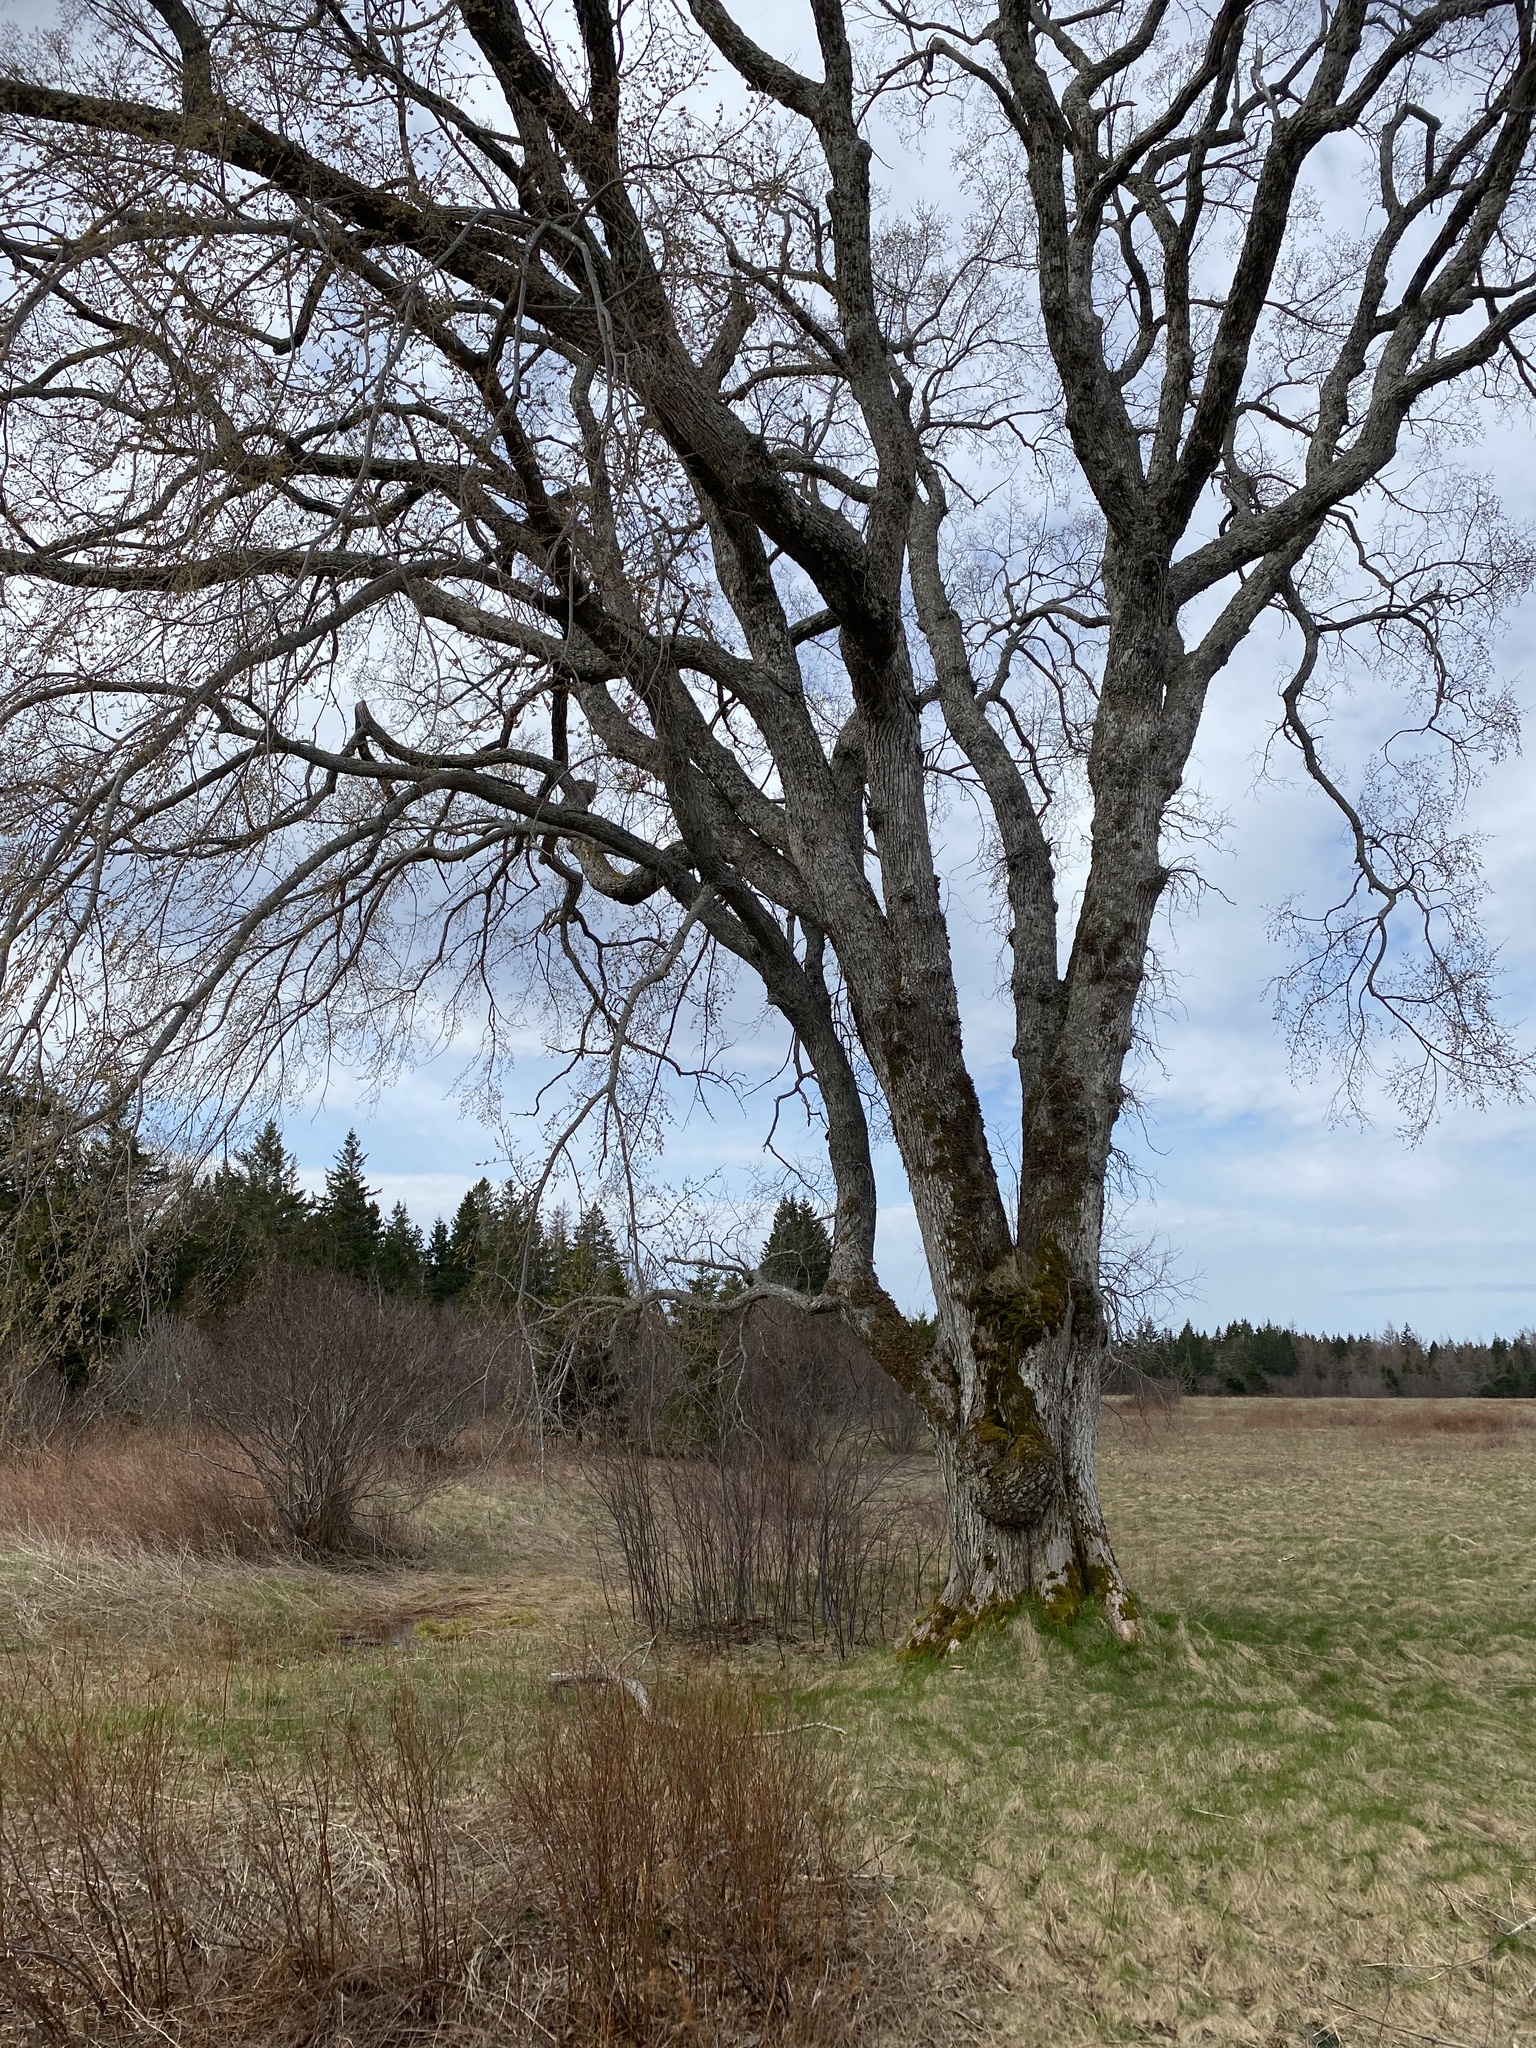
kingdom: Plantae
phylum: Tracheophyta
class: Magnoliopsida
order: Rosales
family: Ulmaceae
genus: Ulmus
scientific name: Ulmus americana
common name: American elm
